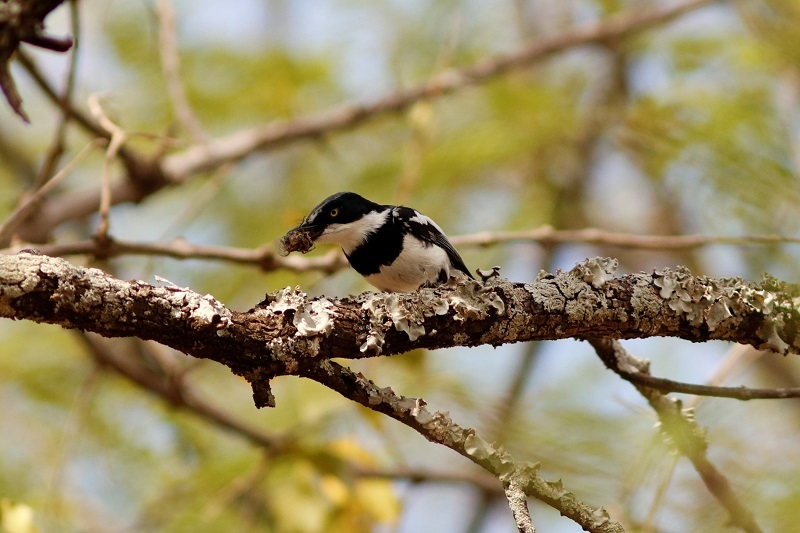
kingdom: Animalia
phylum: Chordata
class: Aves
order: Passeriformes
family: Platysteiridae
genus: Batis
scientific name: Batis molitor
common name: Chinspot batis
